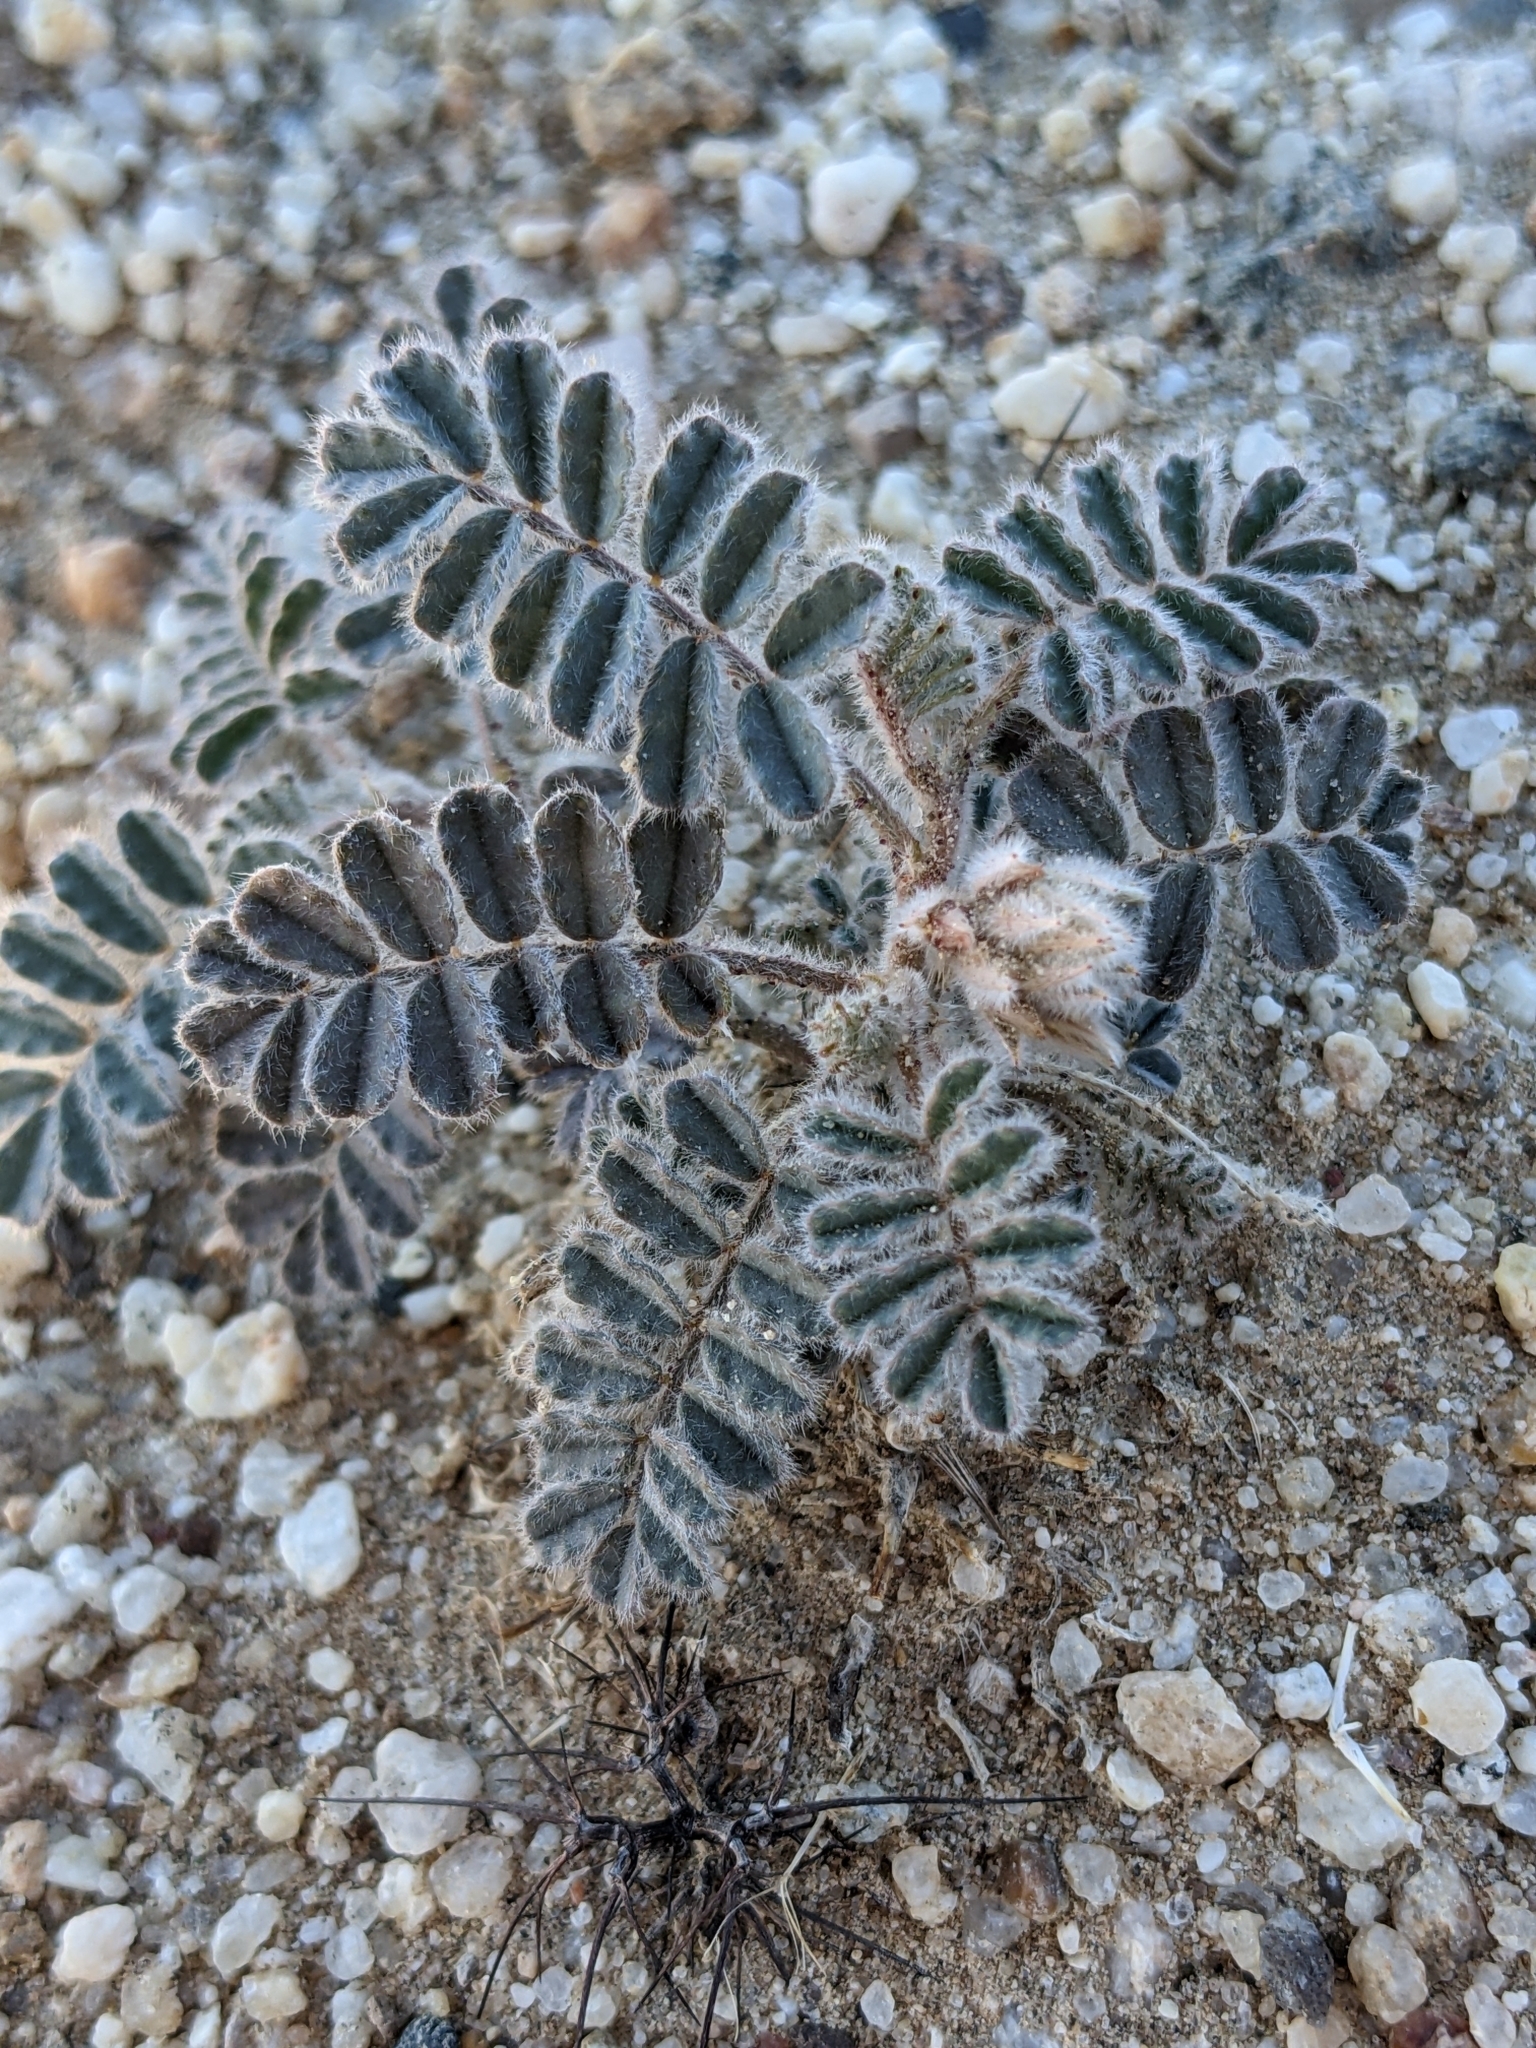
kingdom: Plantae
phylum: Tracheophyta
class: Magnoliopsida
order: Fabales
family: Fabaceae
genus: Dalea
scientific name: Dalea mollissima
